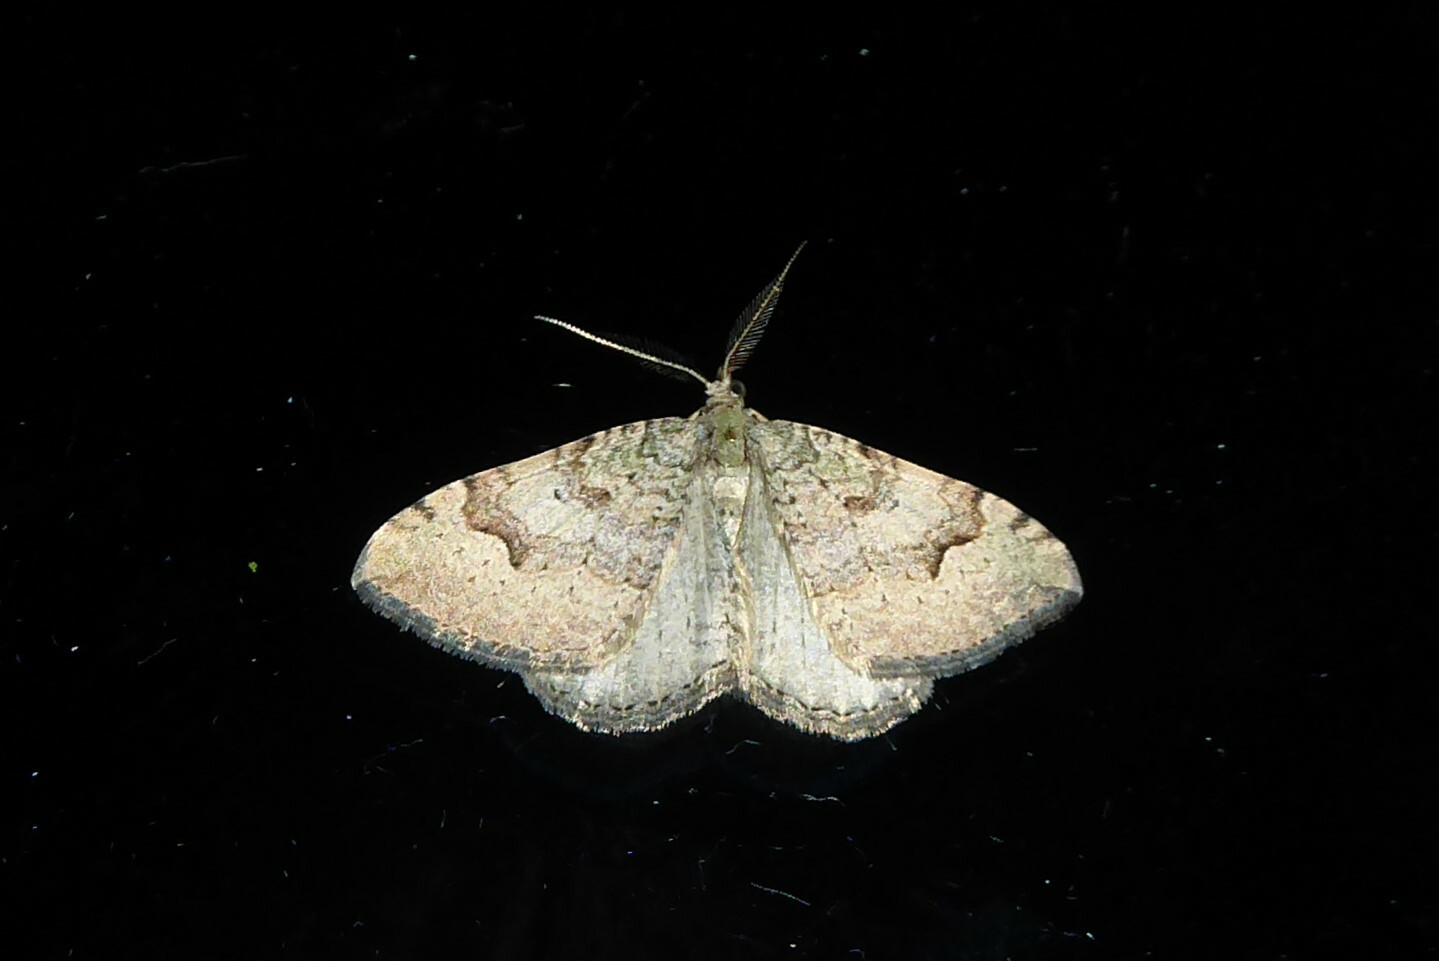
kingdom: Animalia
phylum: Arthropoda
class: Insecta
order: Lepidoptera
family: Geometridae
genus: Epyaxa
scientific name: Epyaxa rosearia
